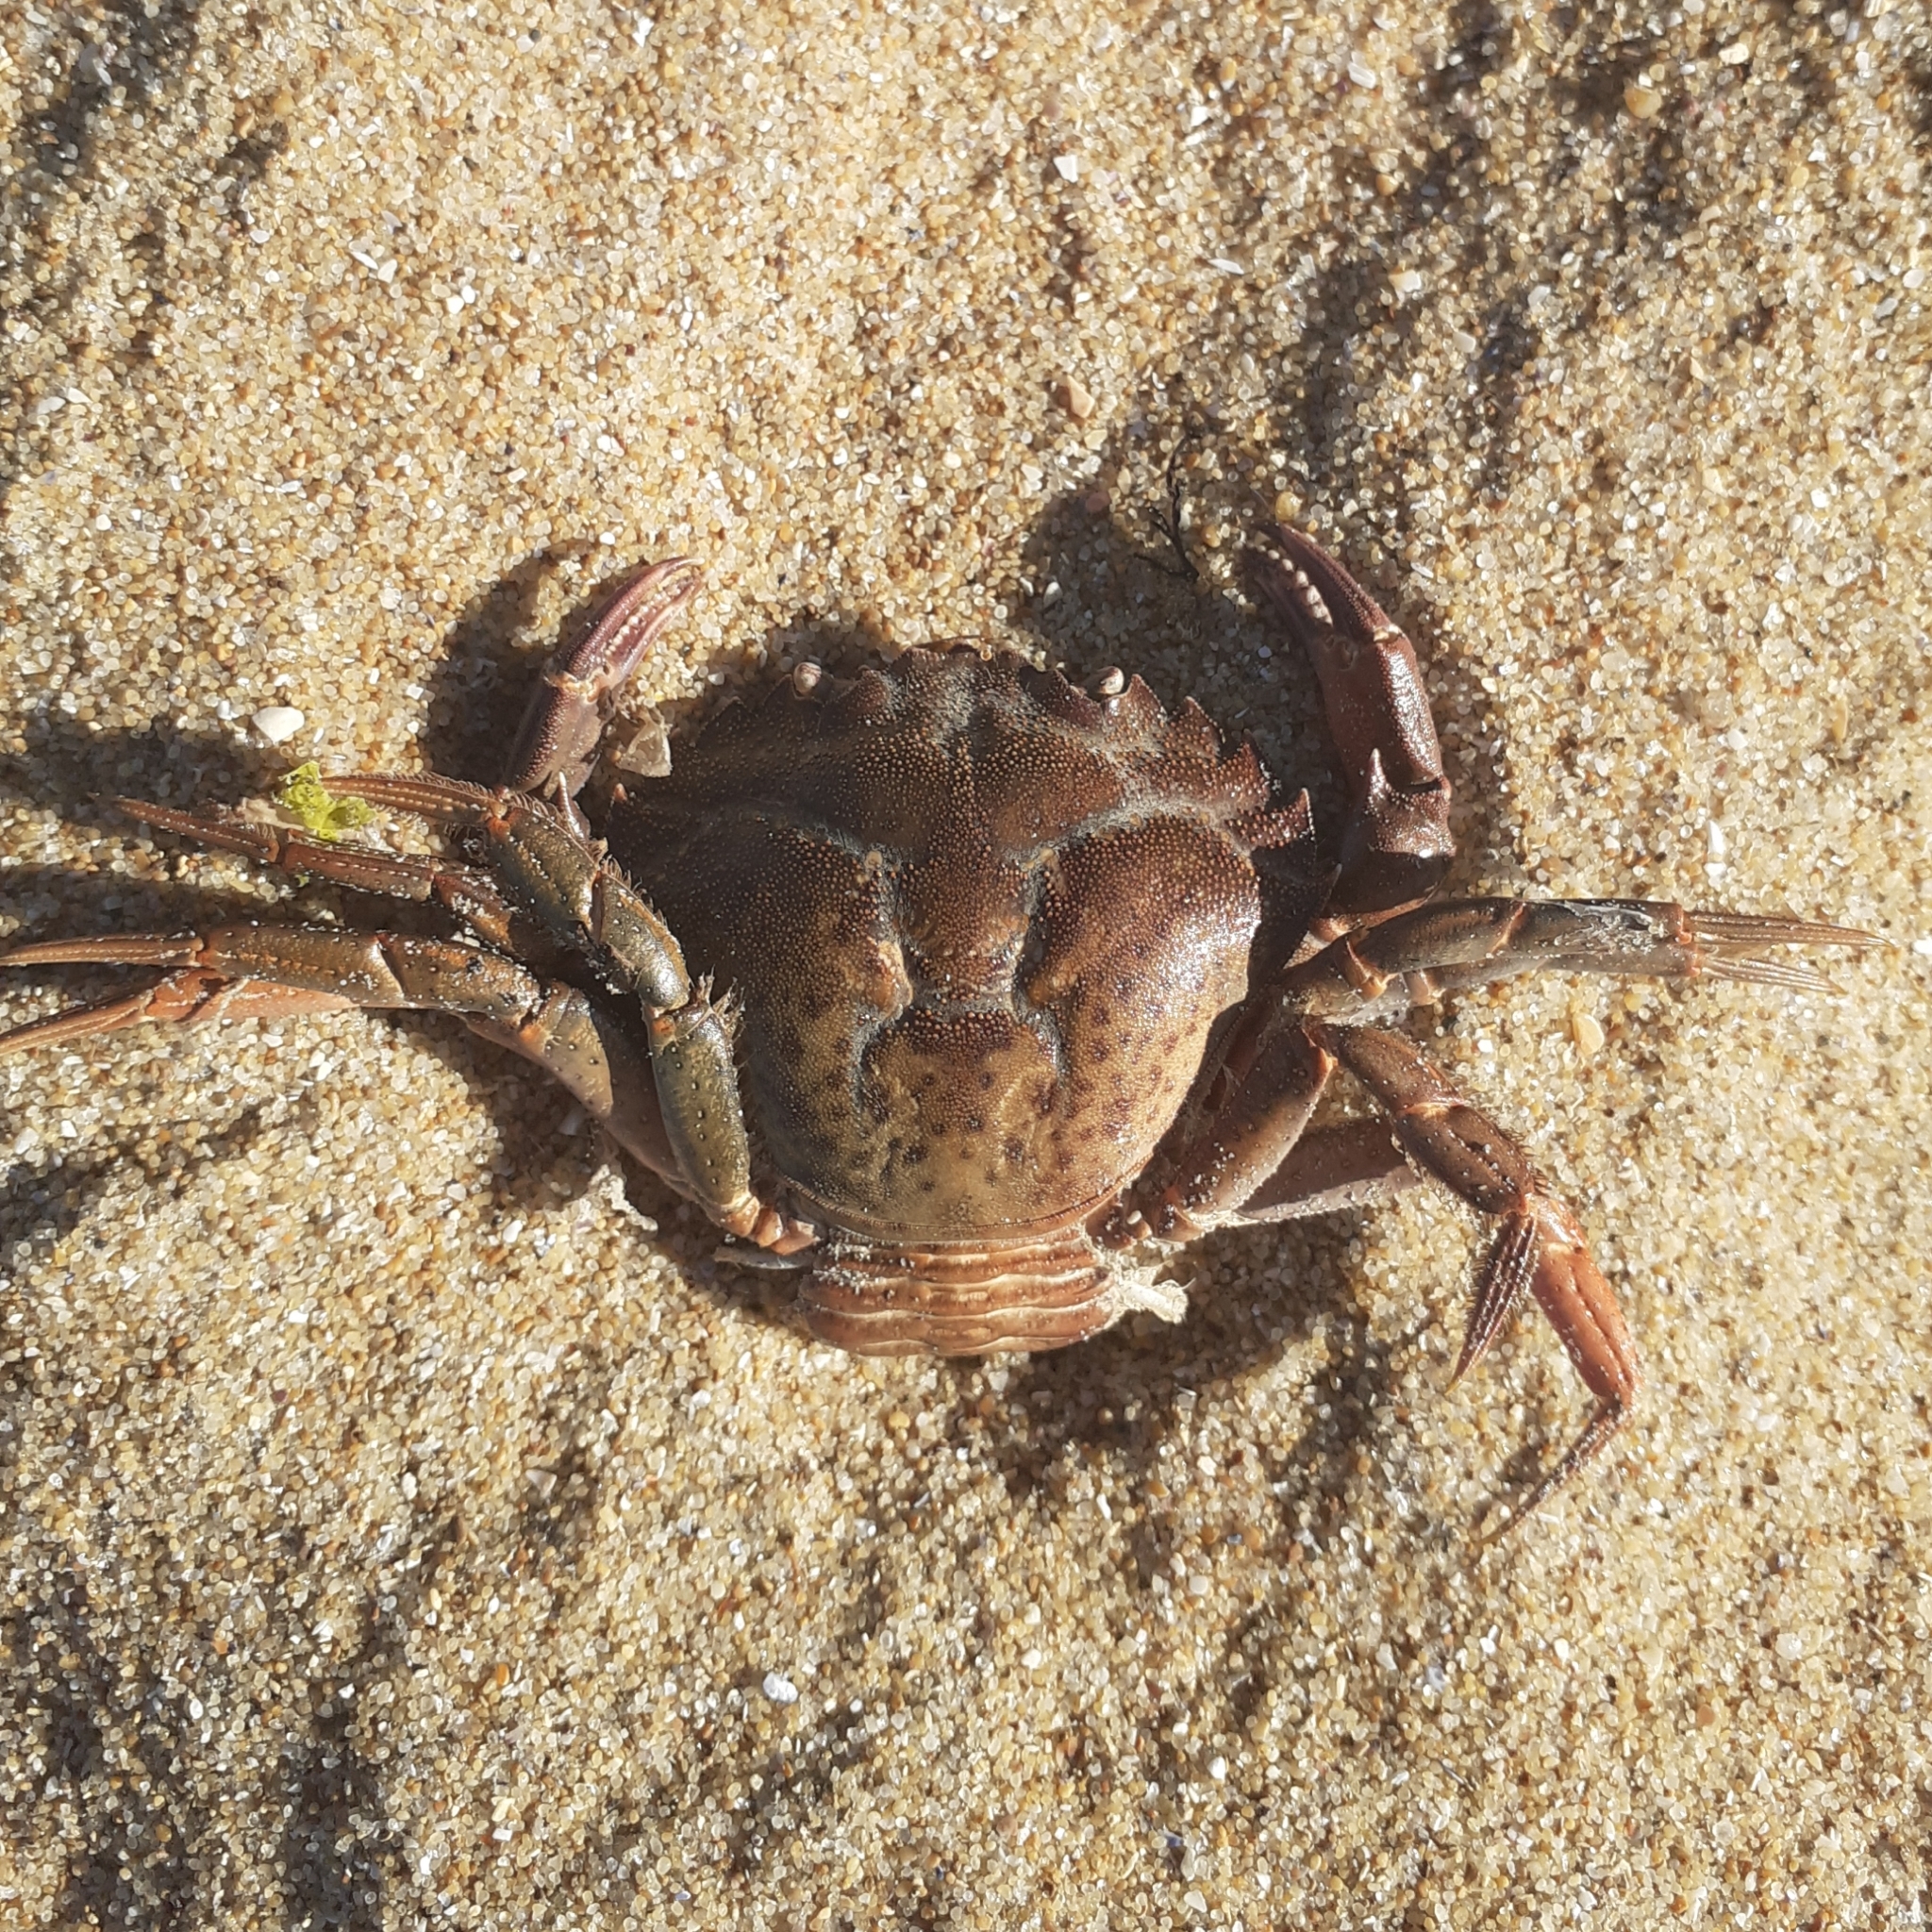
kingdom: Animalia
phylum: Arthropoda
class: Malacostraca
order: Decapoda
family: Carcinidae
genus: Carcinus
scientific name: Carcinus maenas
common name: European green crab
